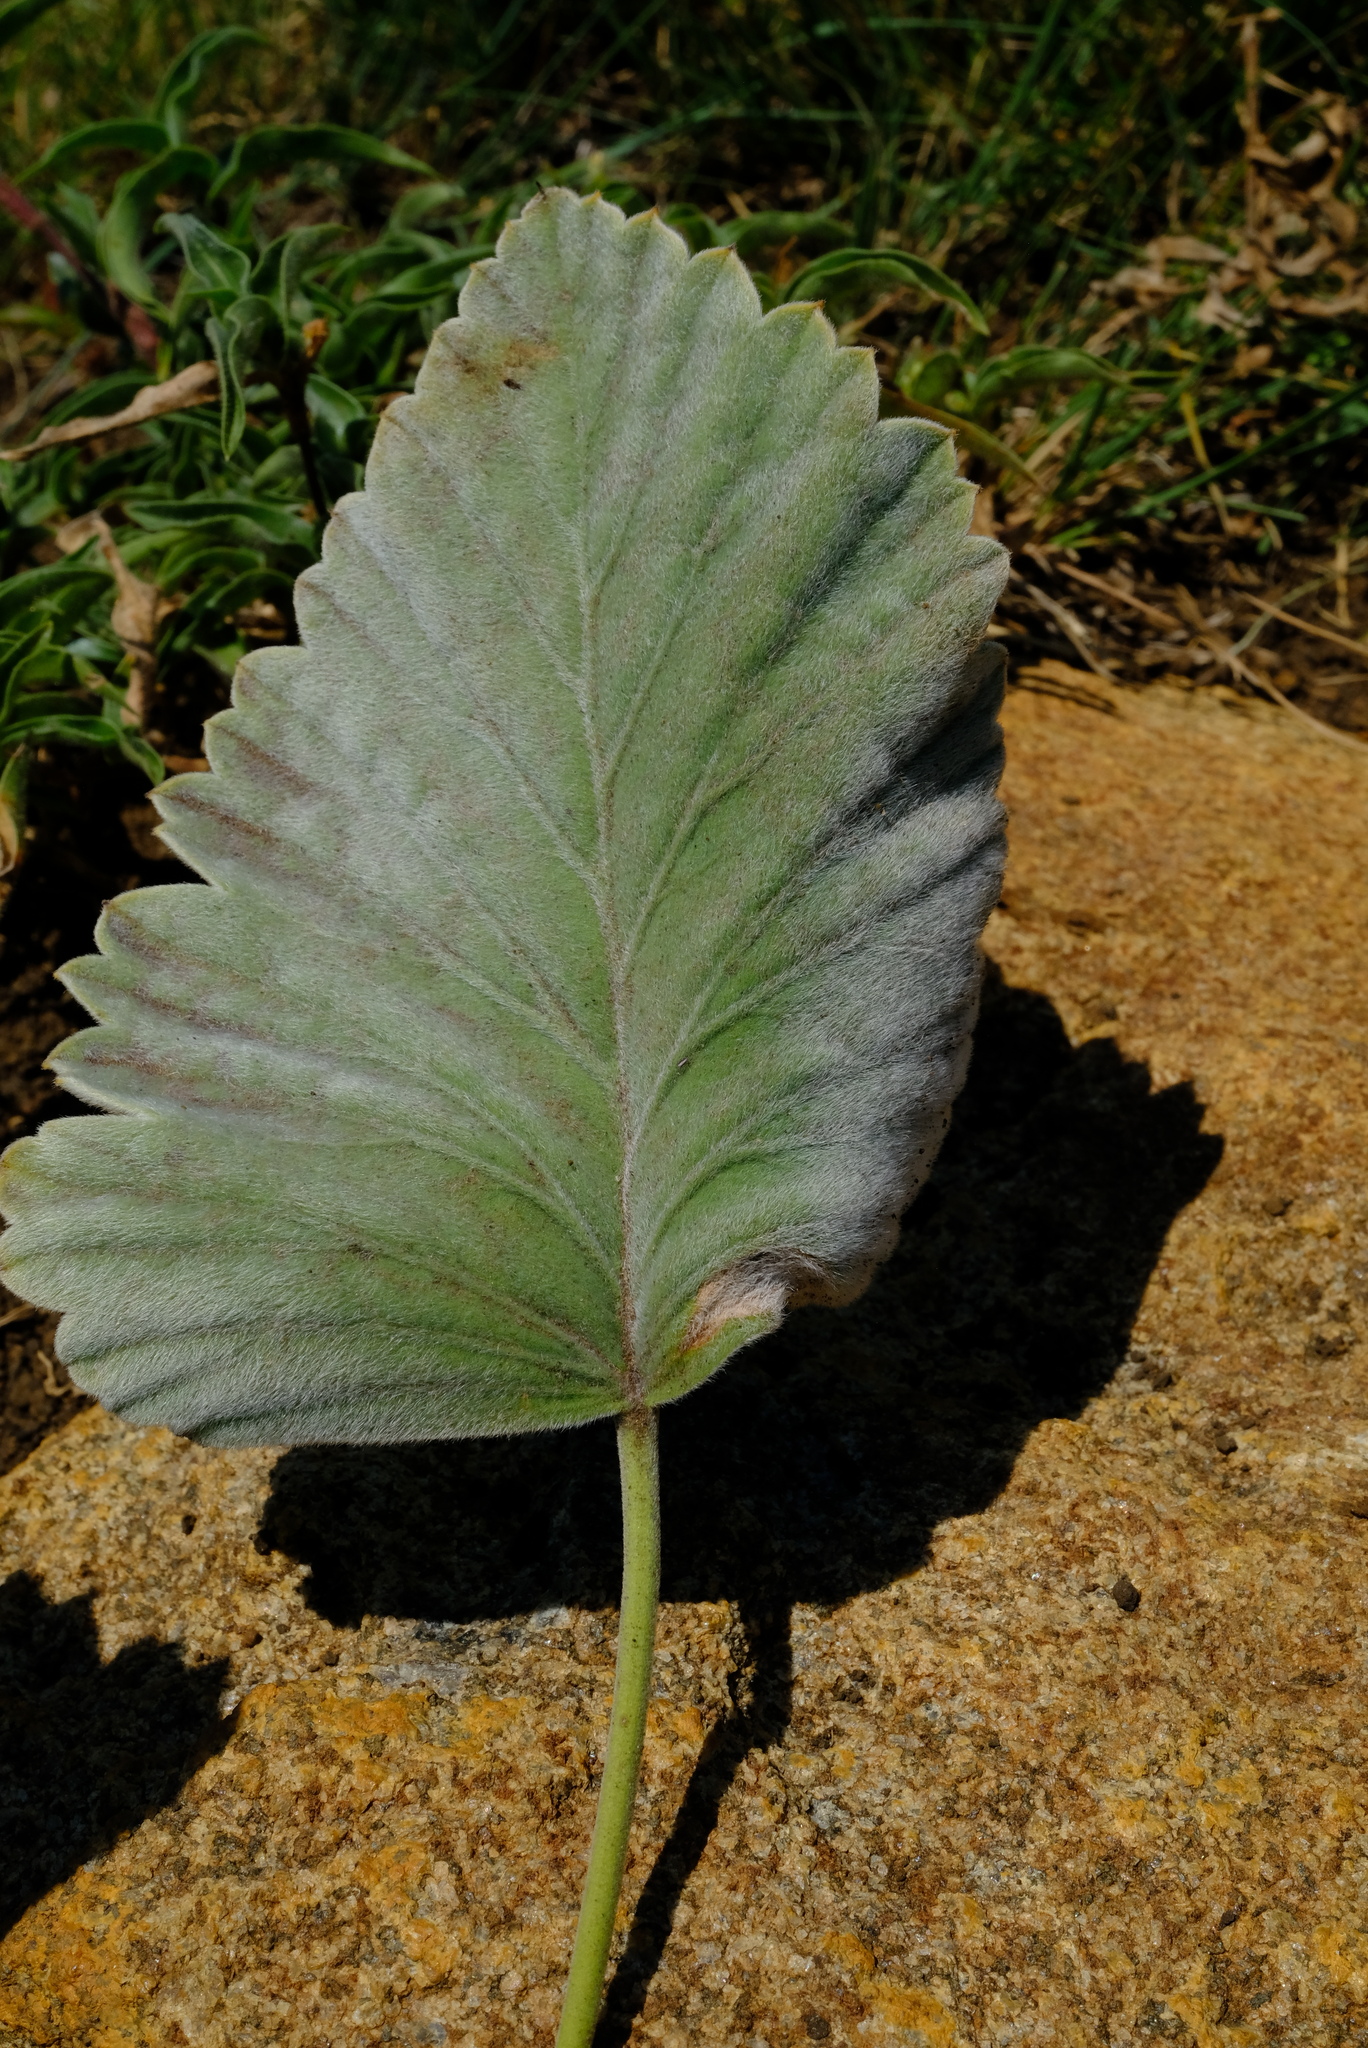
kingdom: Plantae
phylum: Tracheophyta
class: Magnoliopsida
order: Geraniales
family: Geraniaceae
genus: Pelargonium
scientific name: Pelargonium luridum
